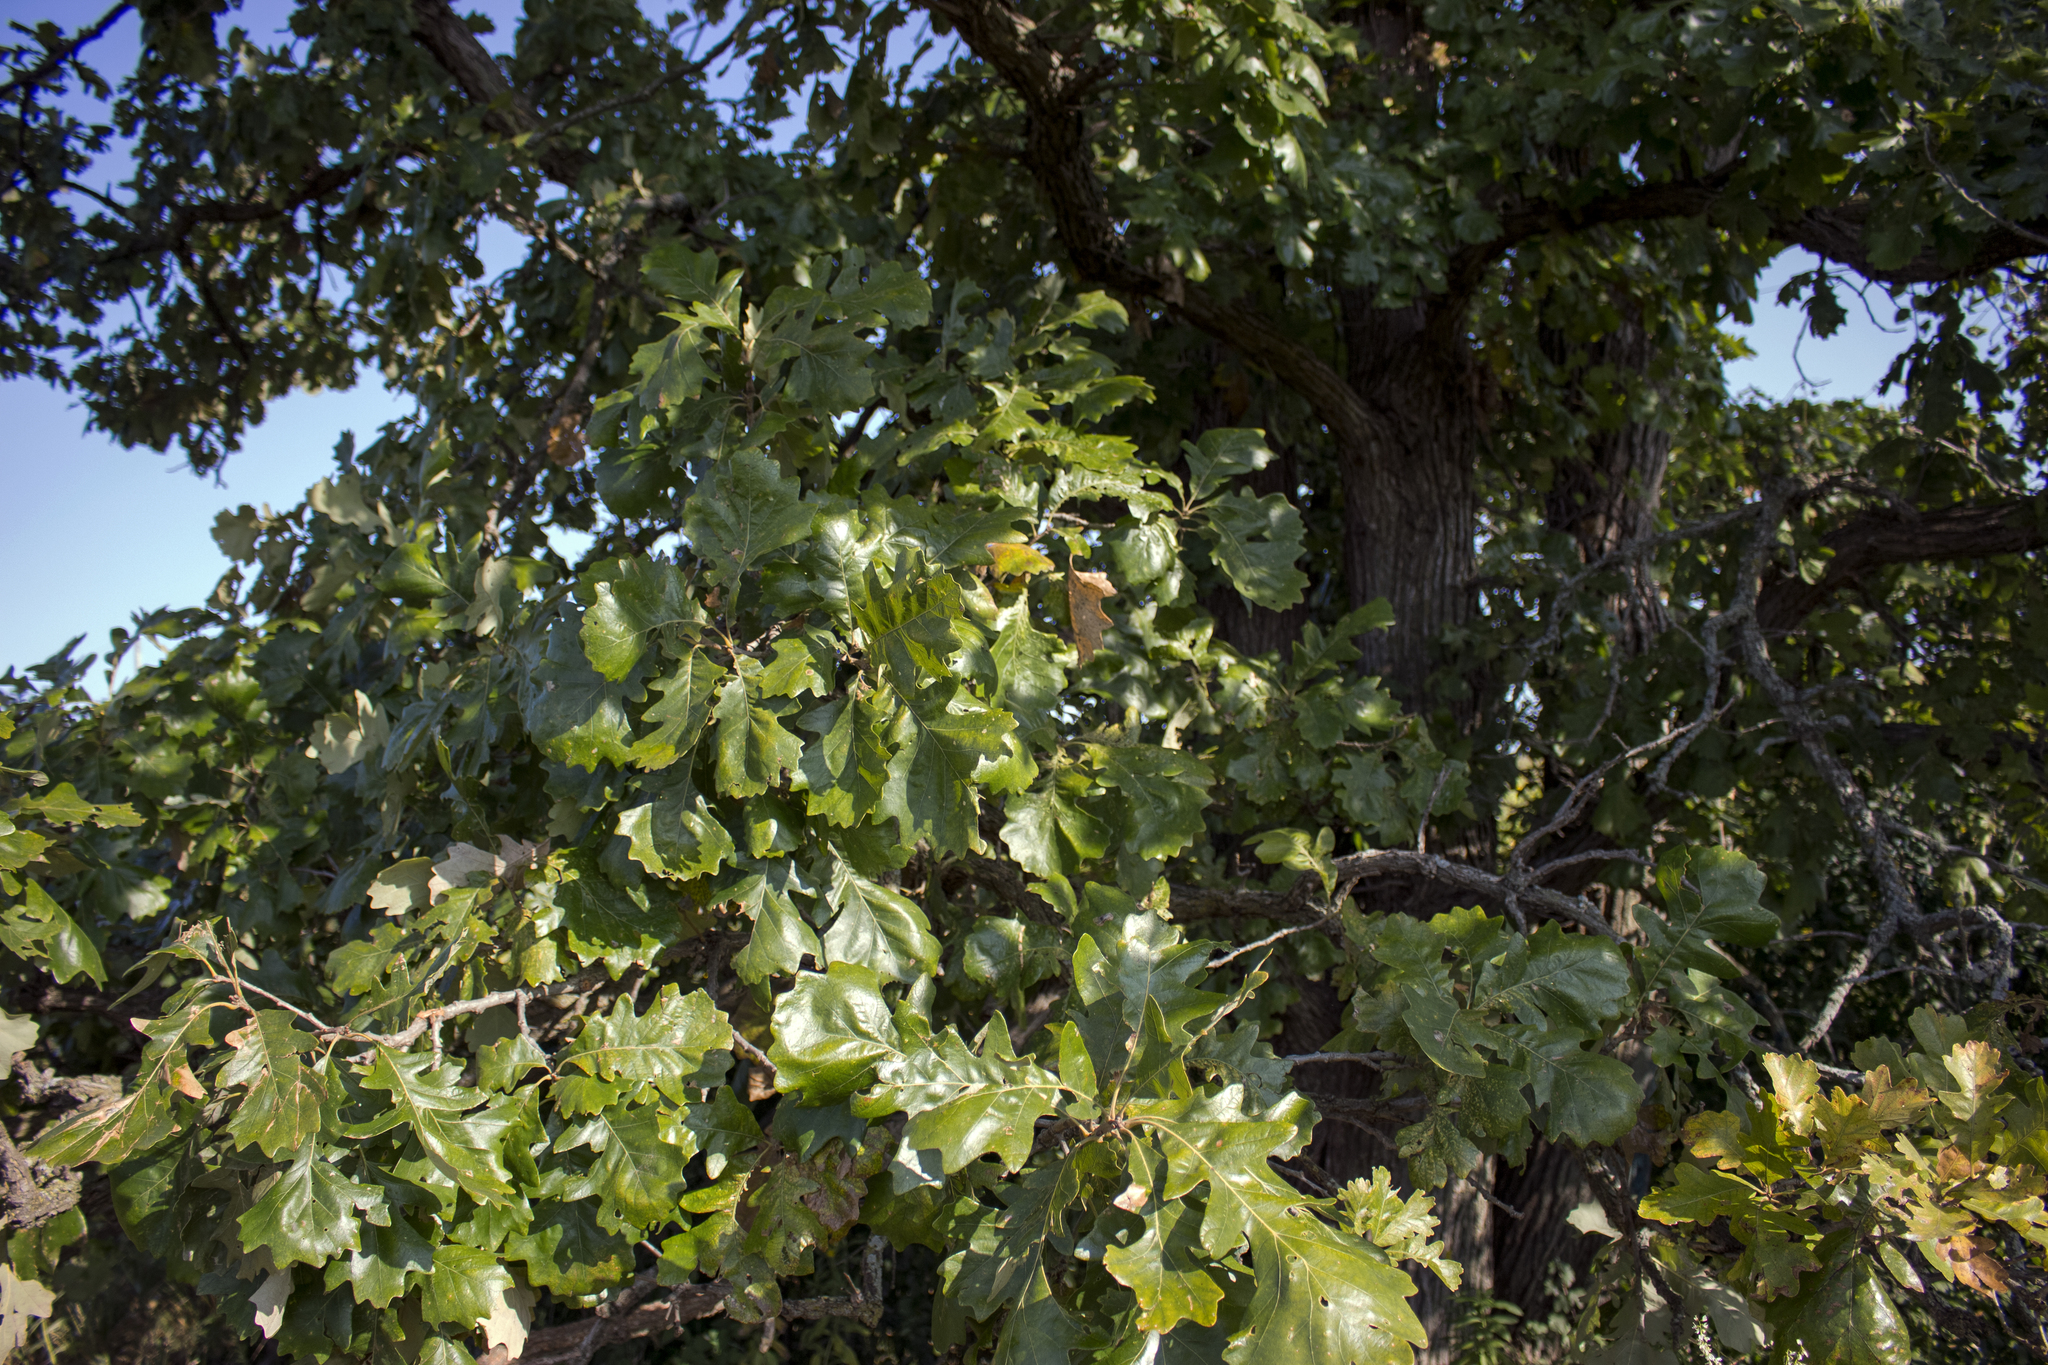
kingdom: Plantae
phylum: Tracheophyta
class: Magnoliopsida
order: Fagales
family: Fagaceae
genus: Quercus
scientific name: Quercus macrocarpa
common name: Bur oak
